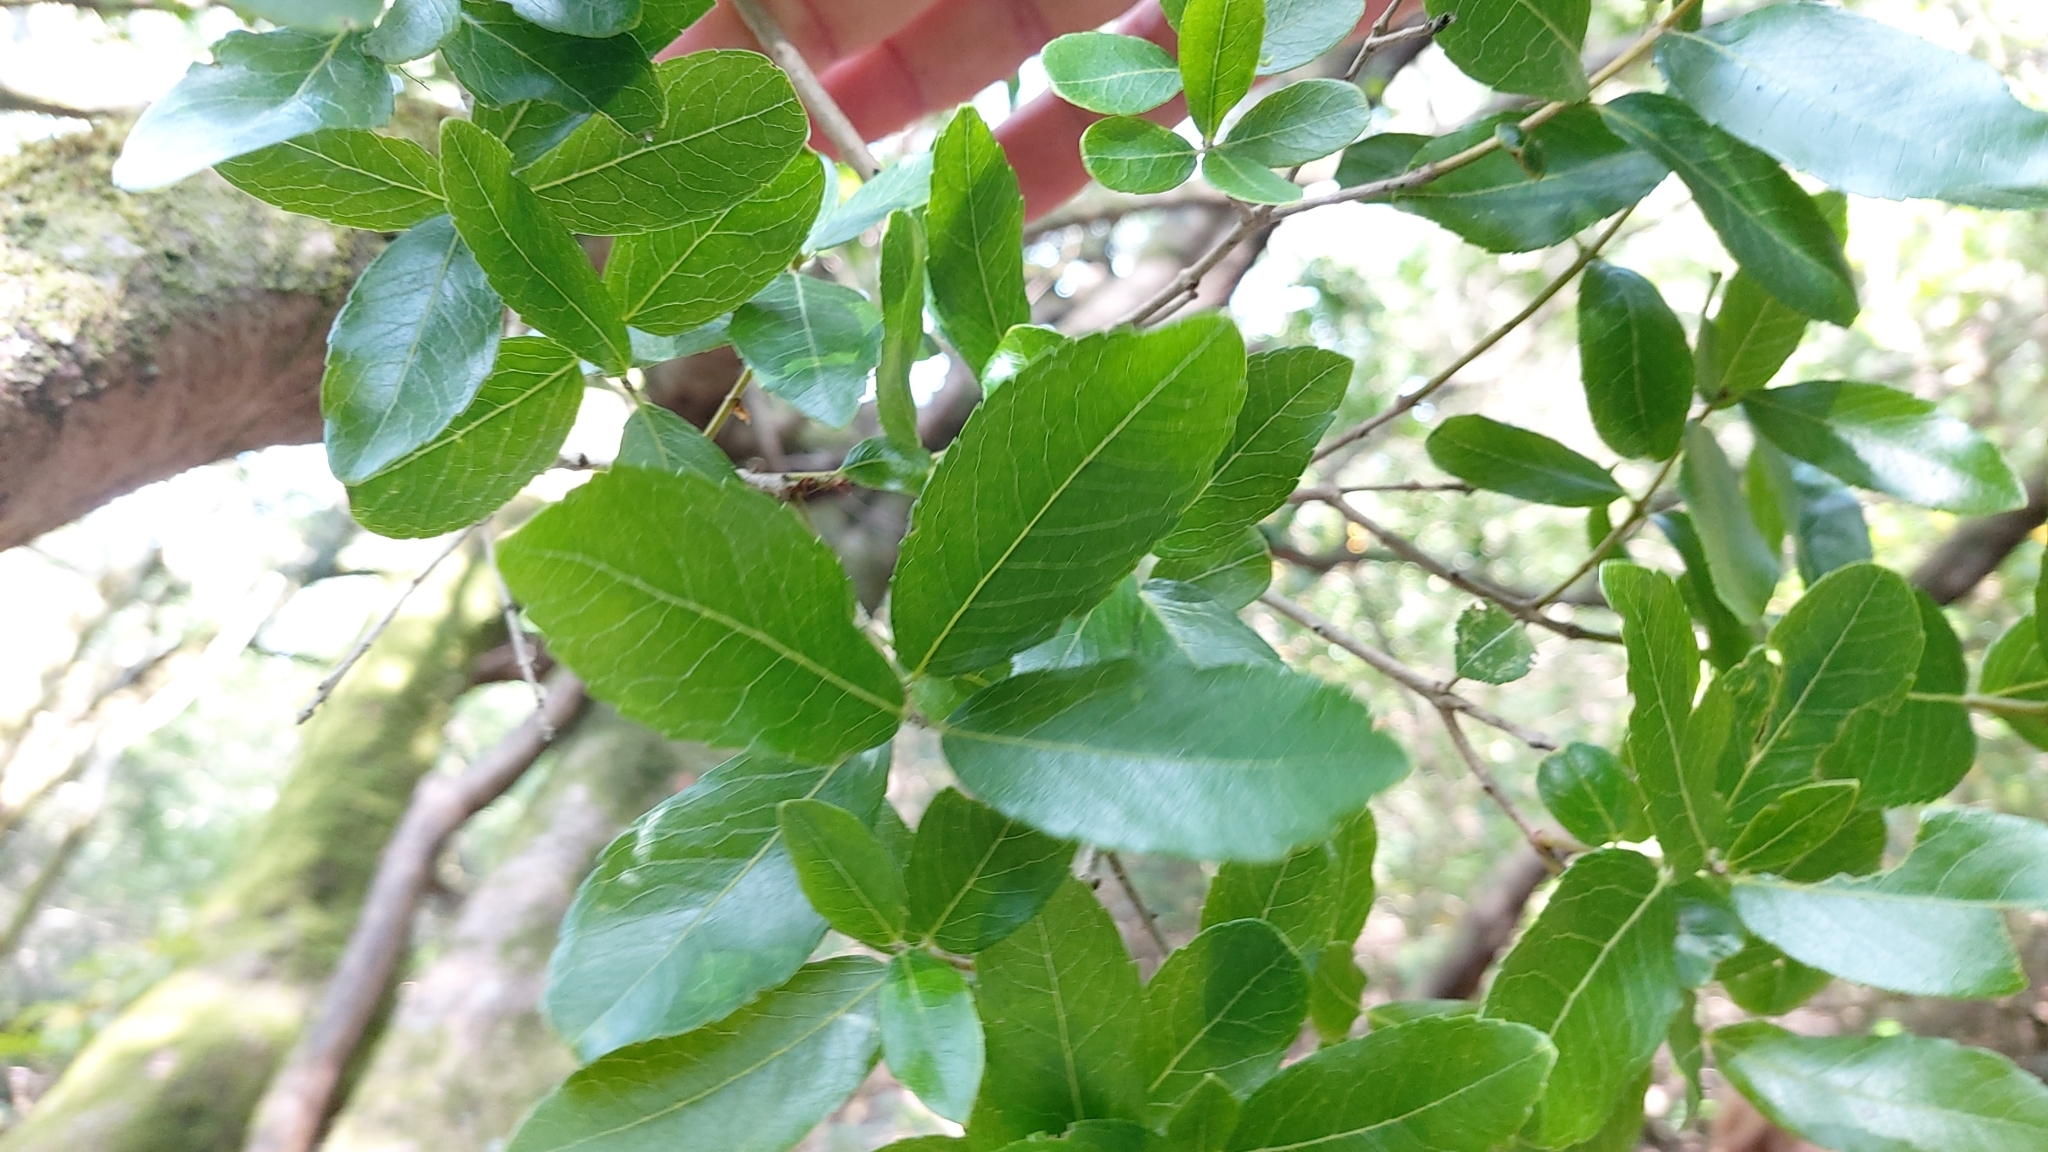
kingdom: Plantae
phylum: Tracheophyta
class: Magnoliopsida
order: Lamiales
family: Oleaceae
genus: Phillyrea
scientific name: Phillyrea latifolia
